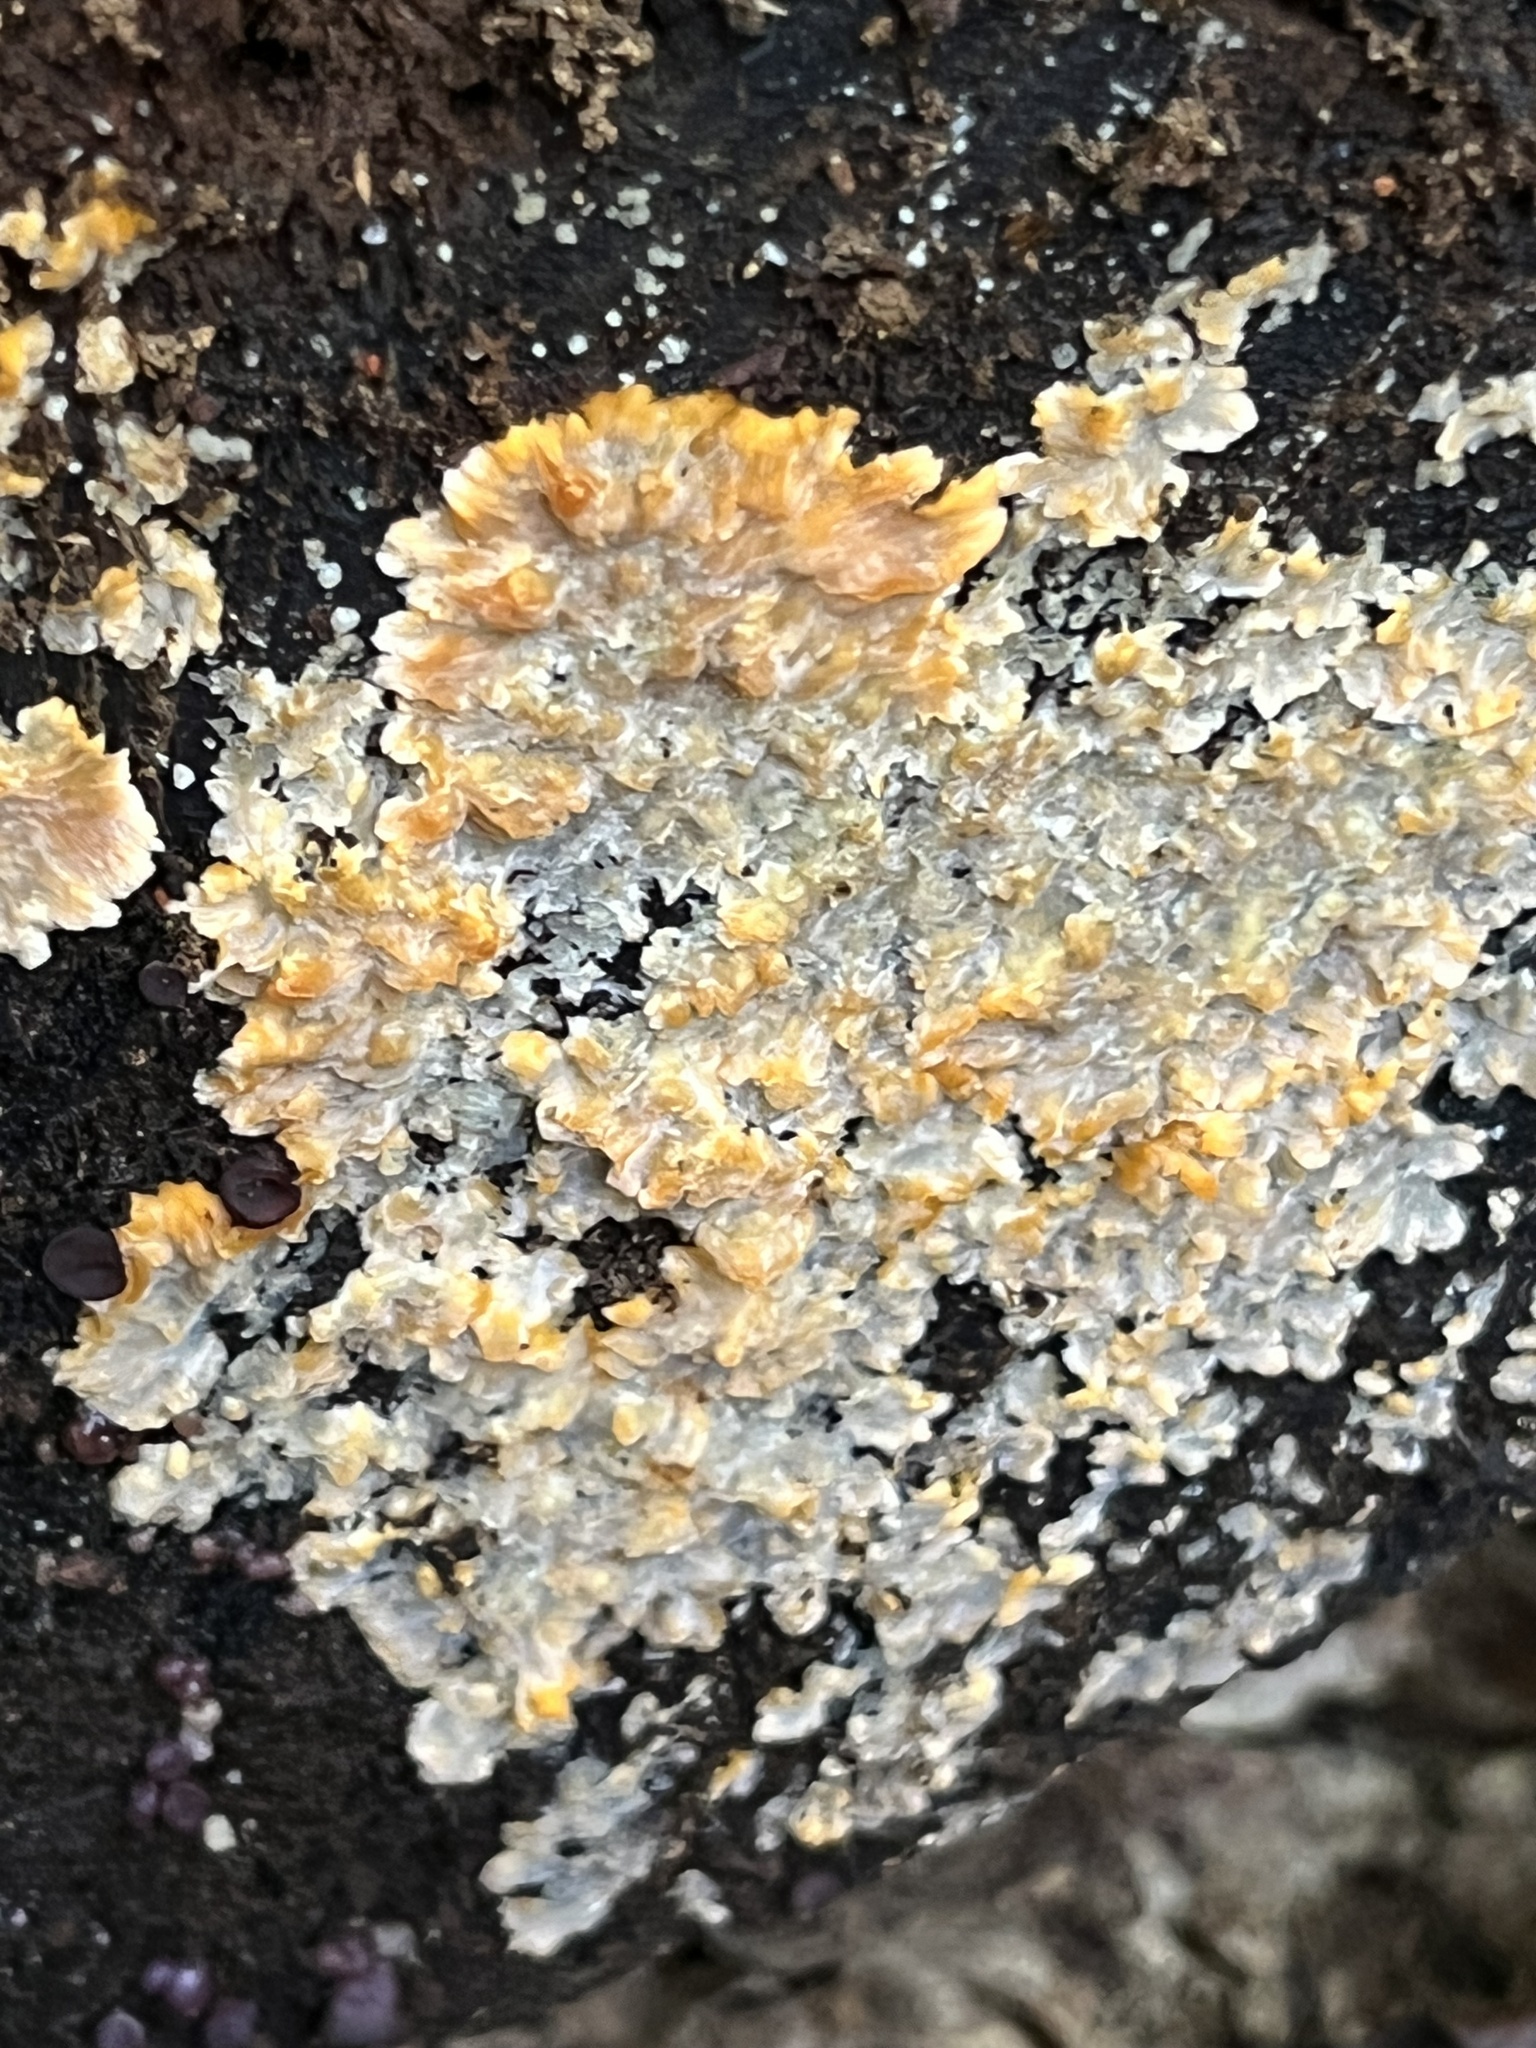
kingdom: Fungi
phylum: Basidiomycota
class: Agaricomycetes
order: Polyporales
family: Meruliaceae
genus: Phlebia
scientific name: Phlebia radiata
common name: Wrinkled crust
